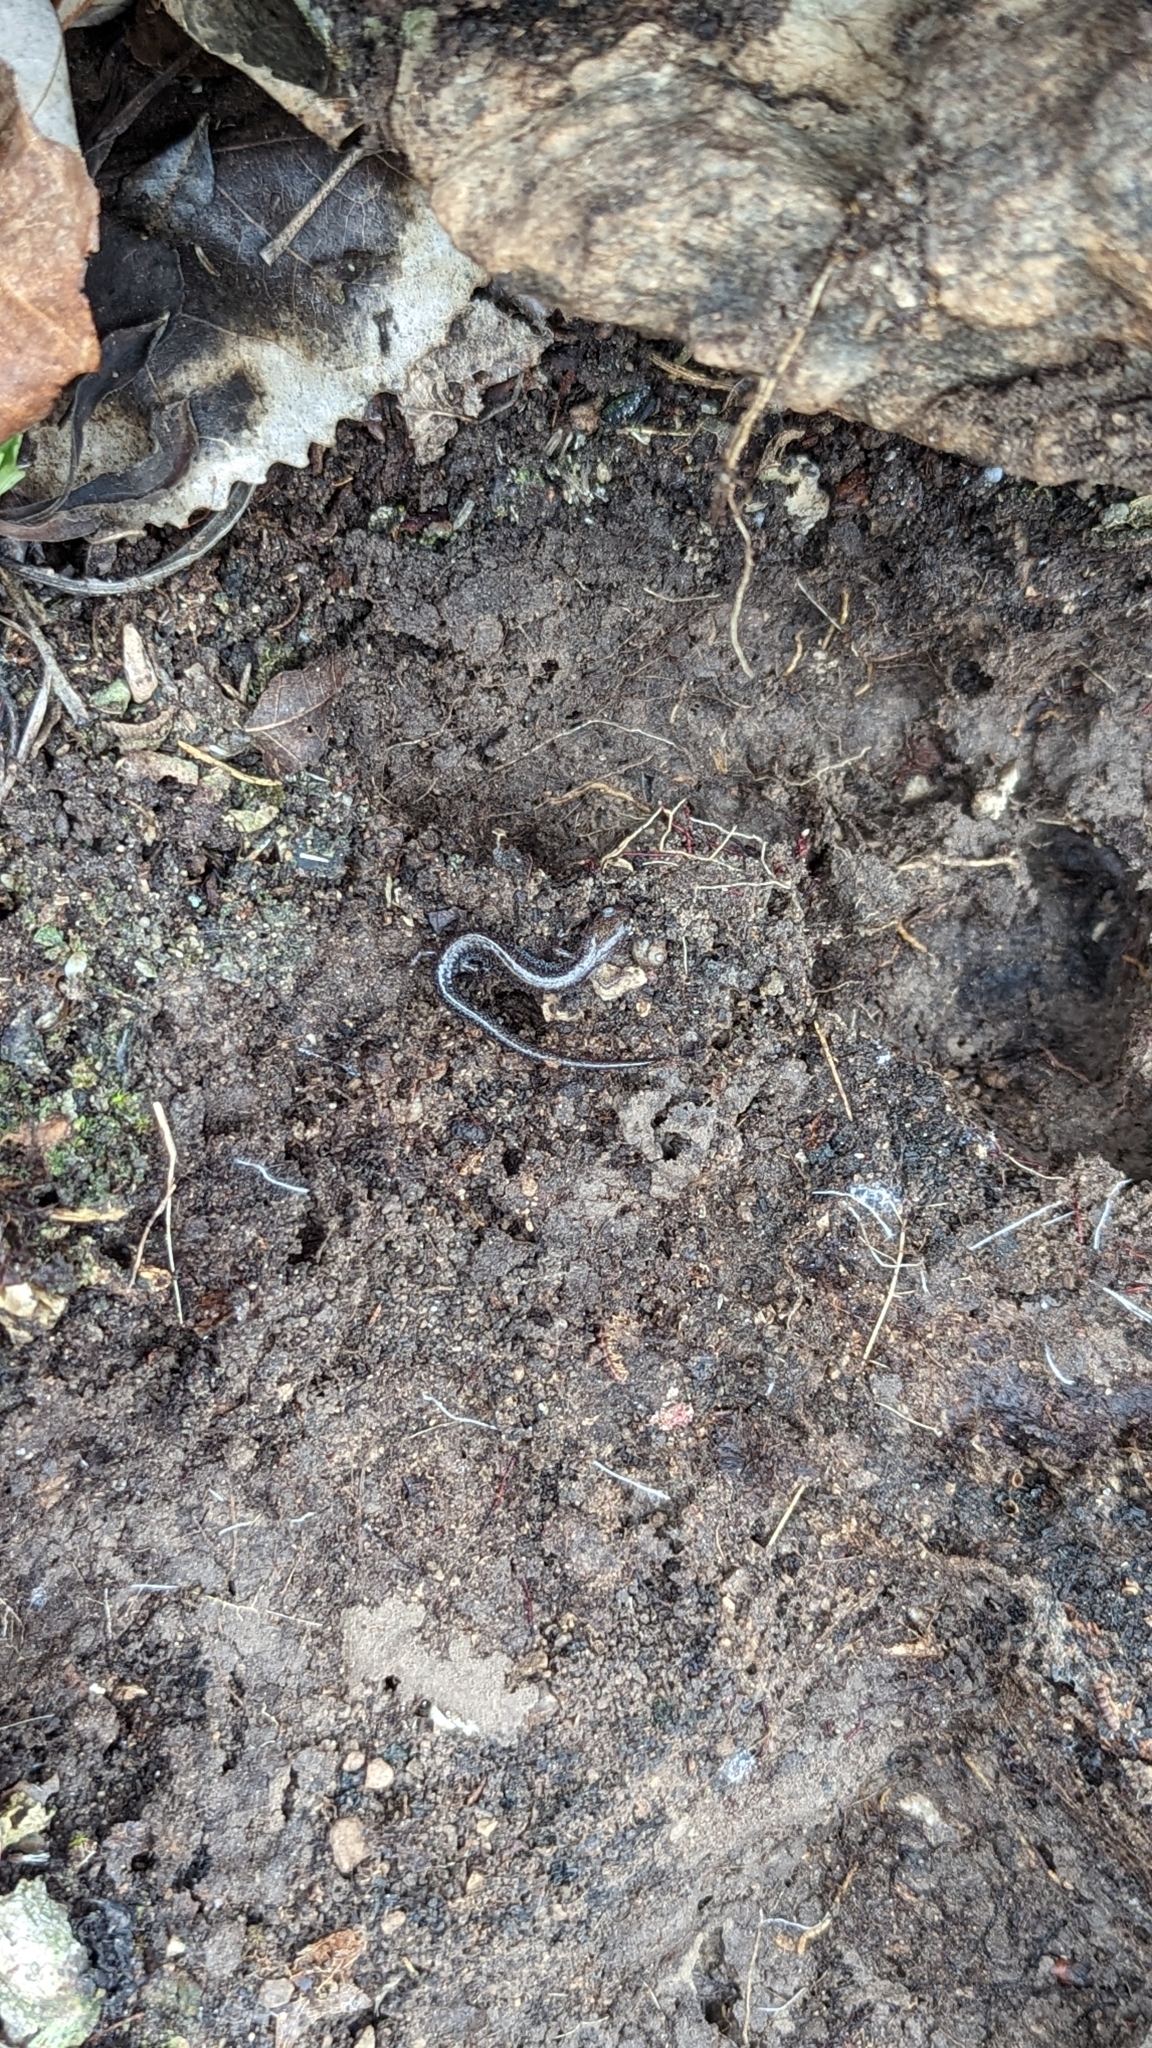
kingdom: Animalia
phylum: Chordata
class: Amphibia
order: Caudata
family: Plethodontidae
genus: Plethodon
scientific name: Plethodon cinereus
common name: Redback salamander
